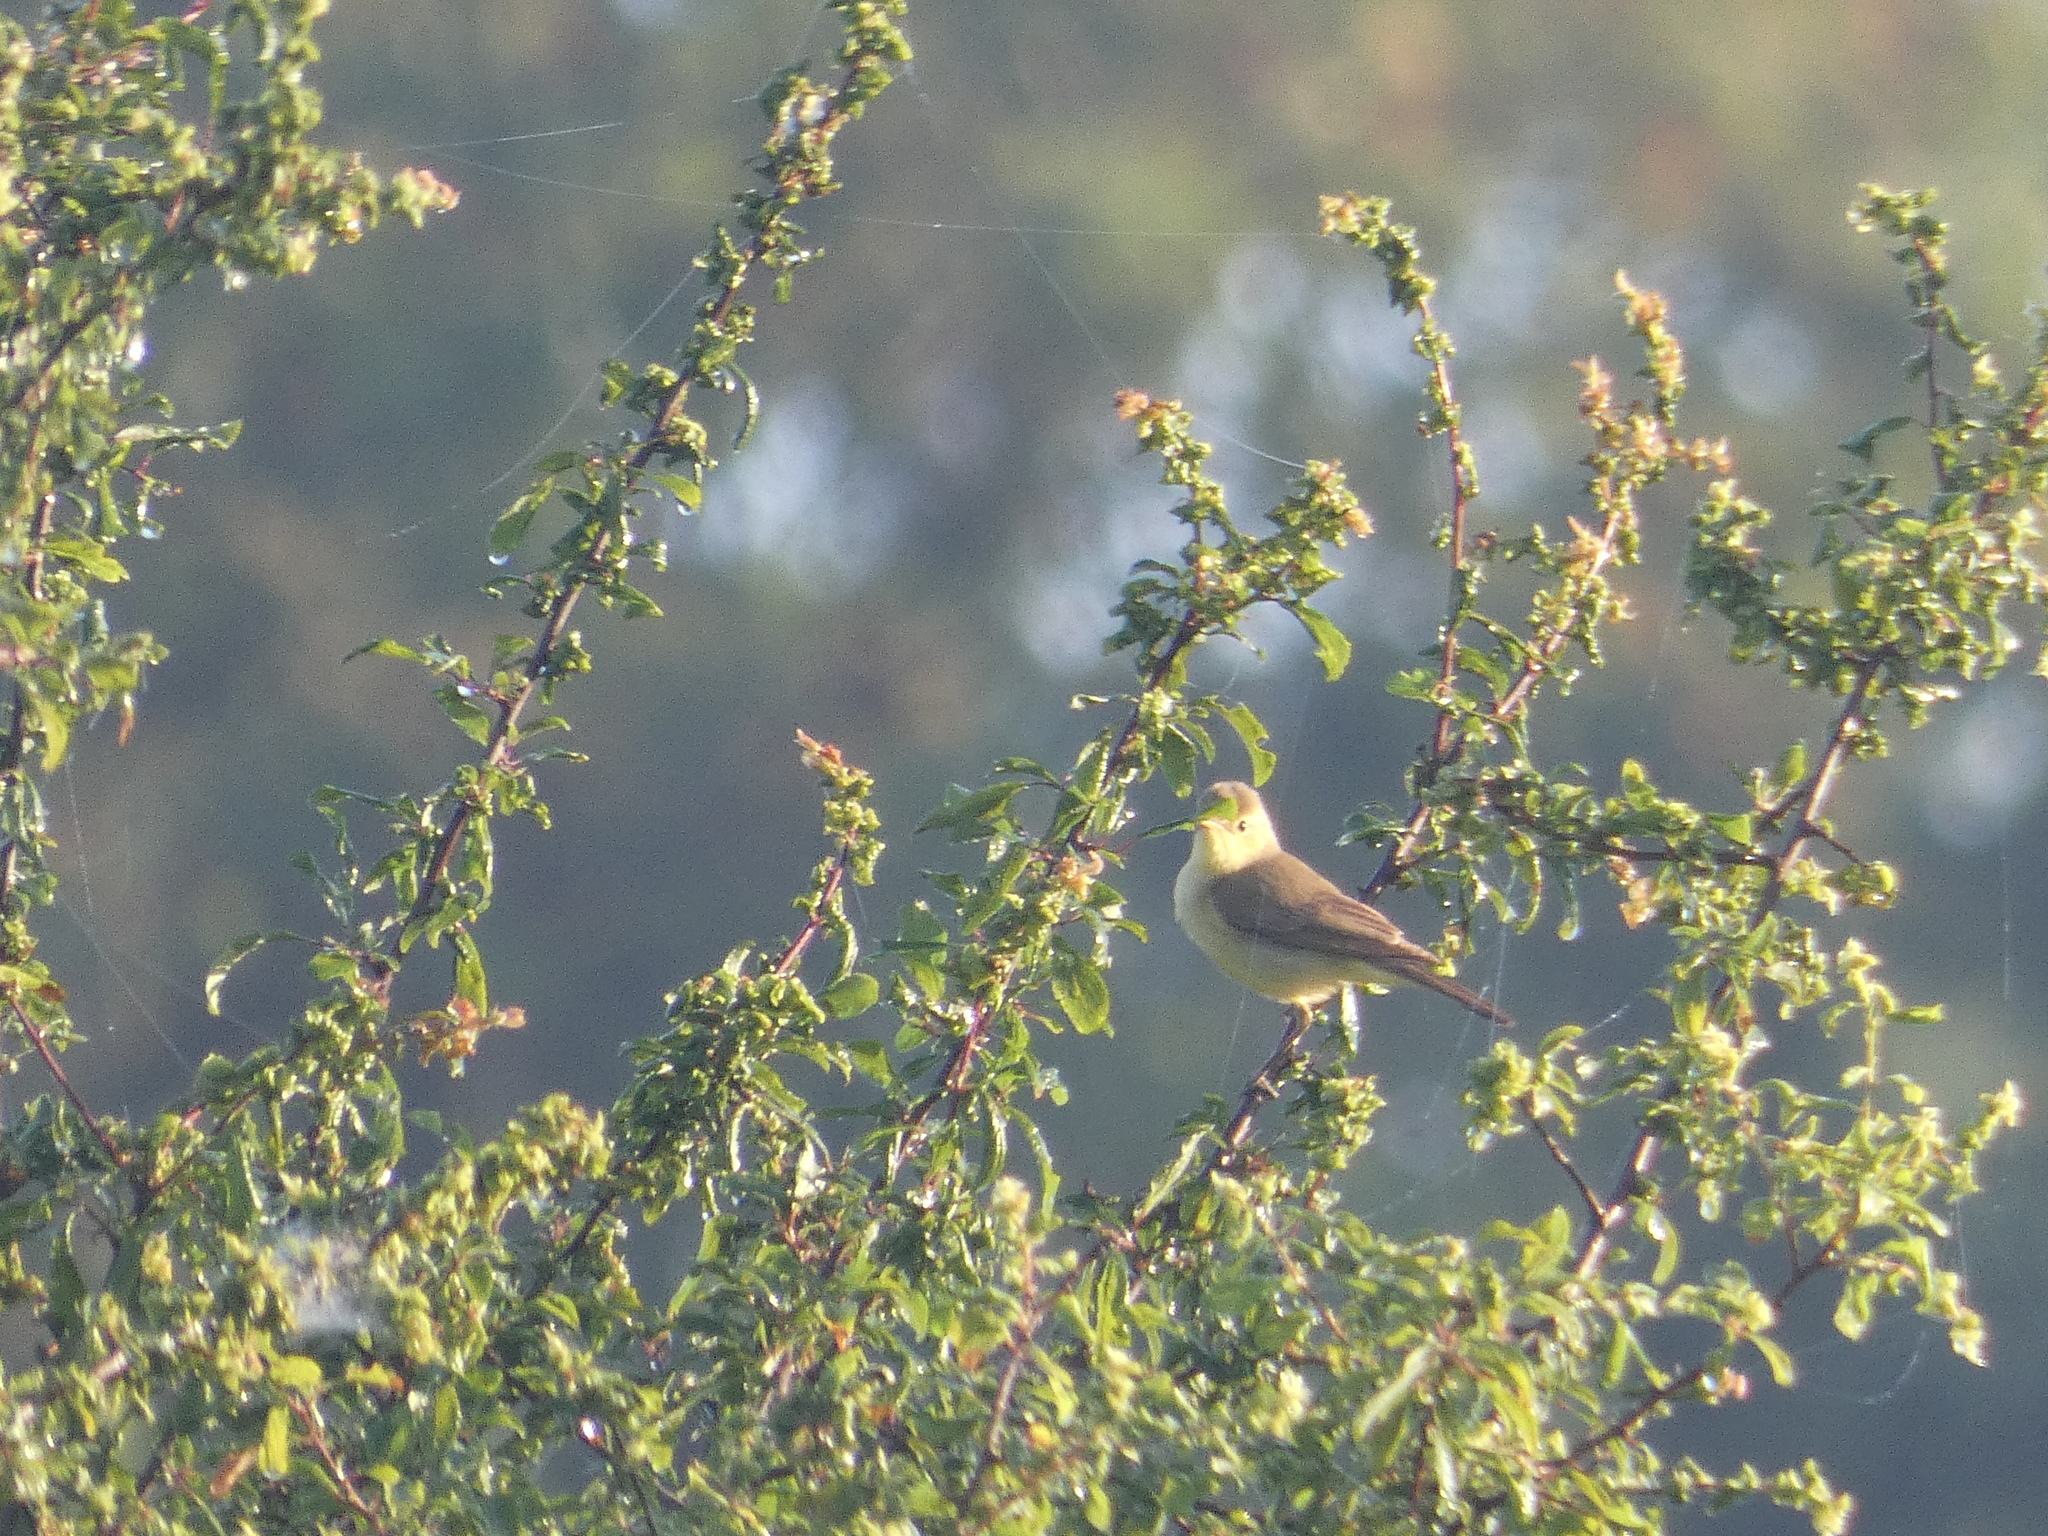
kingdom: Animalia
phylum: Chordata
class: Aves
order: Passeriformes
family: Acrocephalidae
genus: Hippolais
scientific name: Hippolais polyglotta
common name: Melodious warbler
